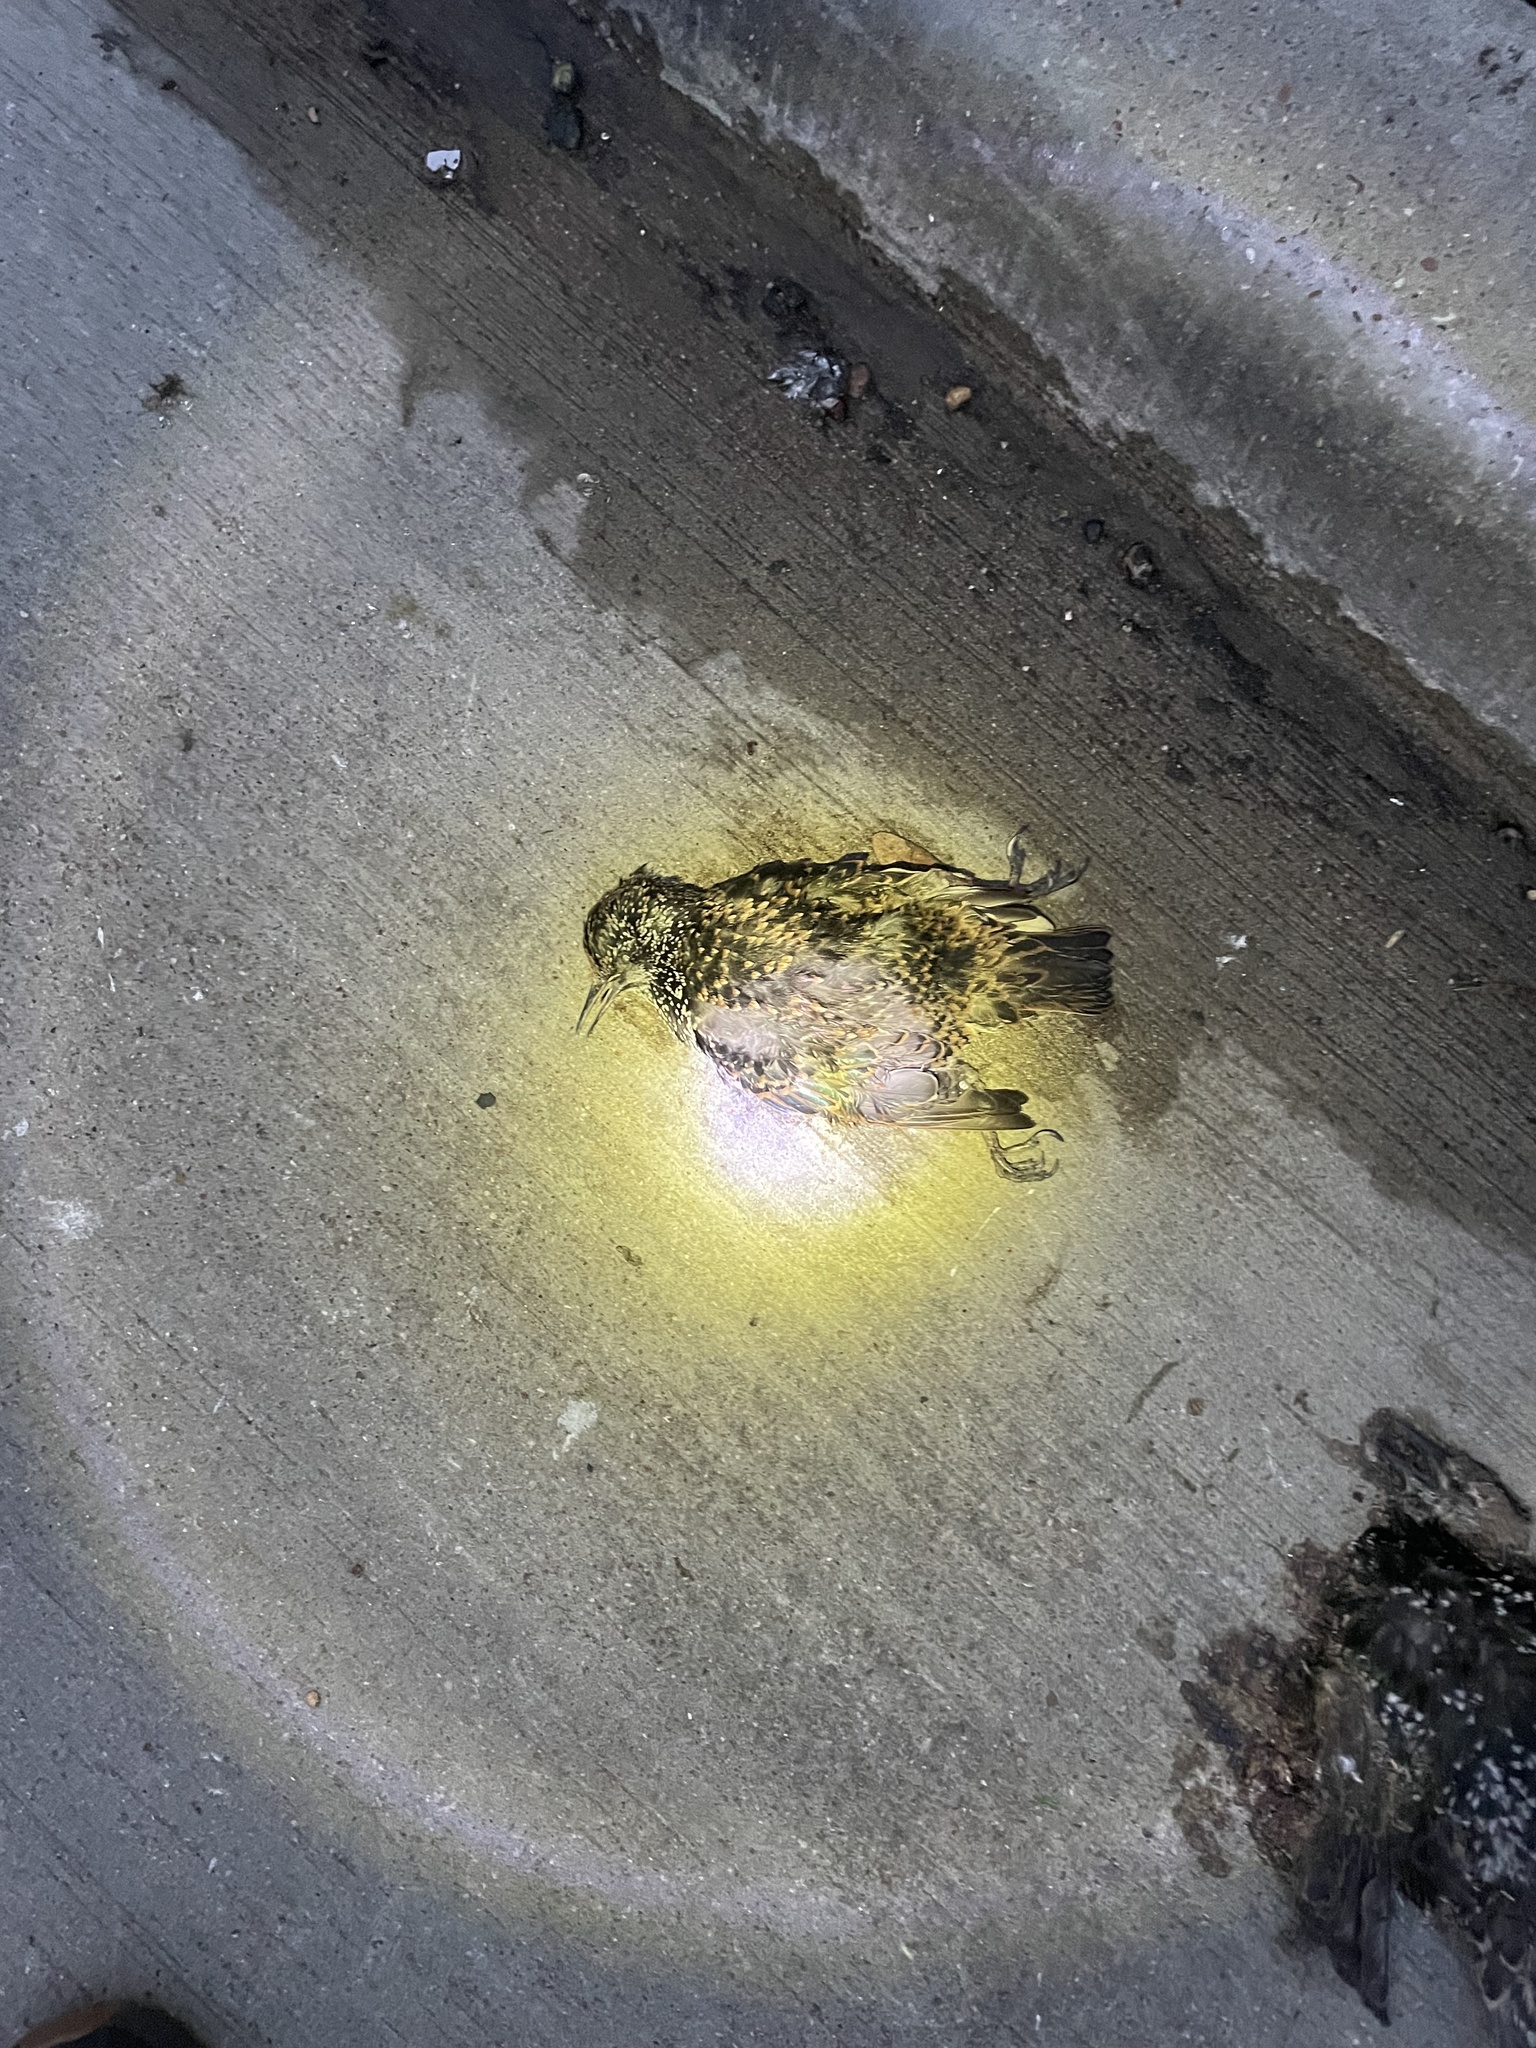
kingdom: Animalia
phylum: Chordata
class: Aves
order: Passeriformes
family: Sturnidae
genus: Sturnus
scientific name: Sturnus vulgaris
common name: Common starling
